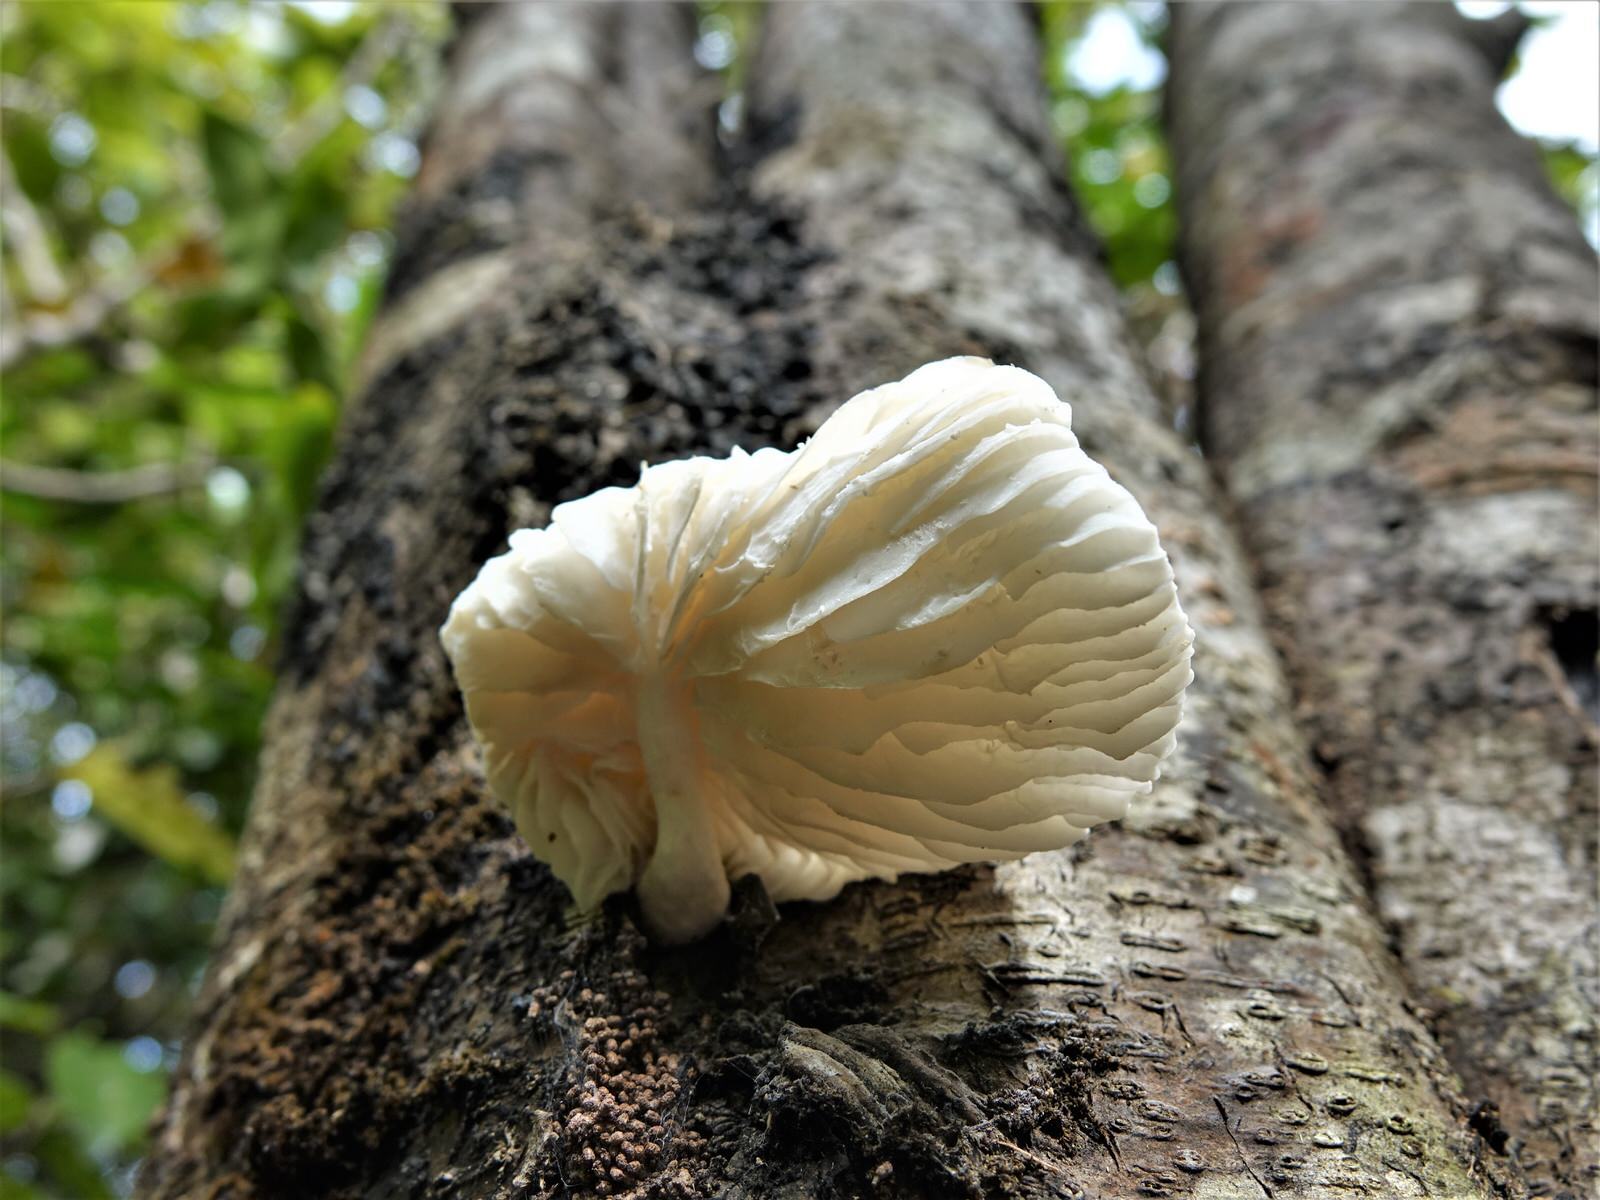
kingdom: Fungi
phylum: Basidiomycota
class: Agaricomycetes
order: Agaricales
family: Physalacriaceae
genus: Oudemansiella
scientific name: Oudemansiella australis
